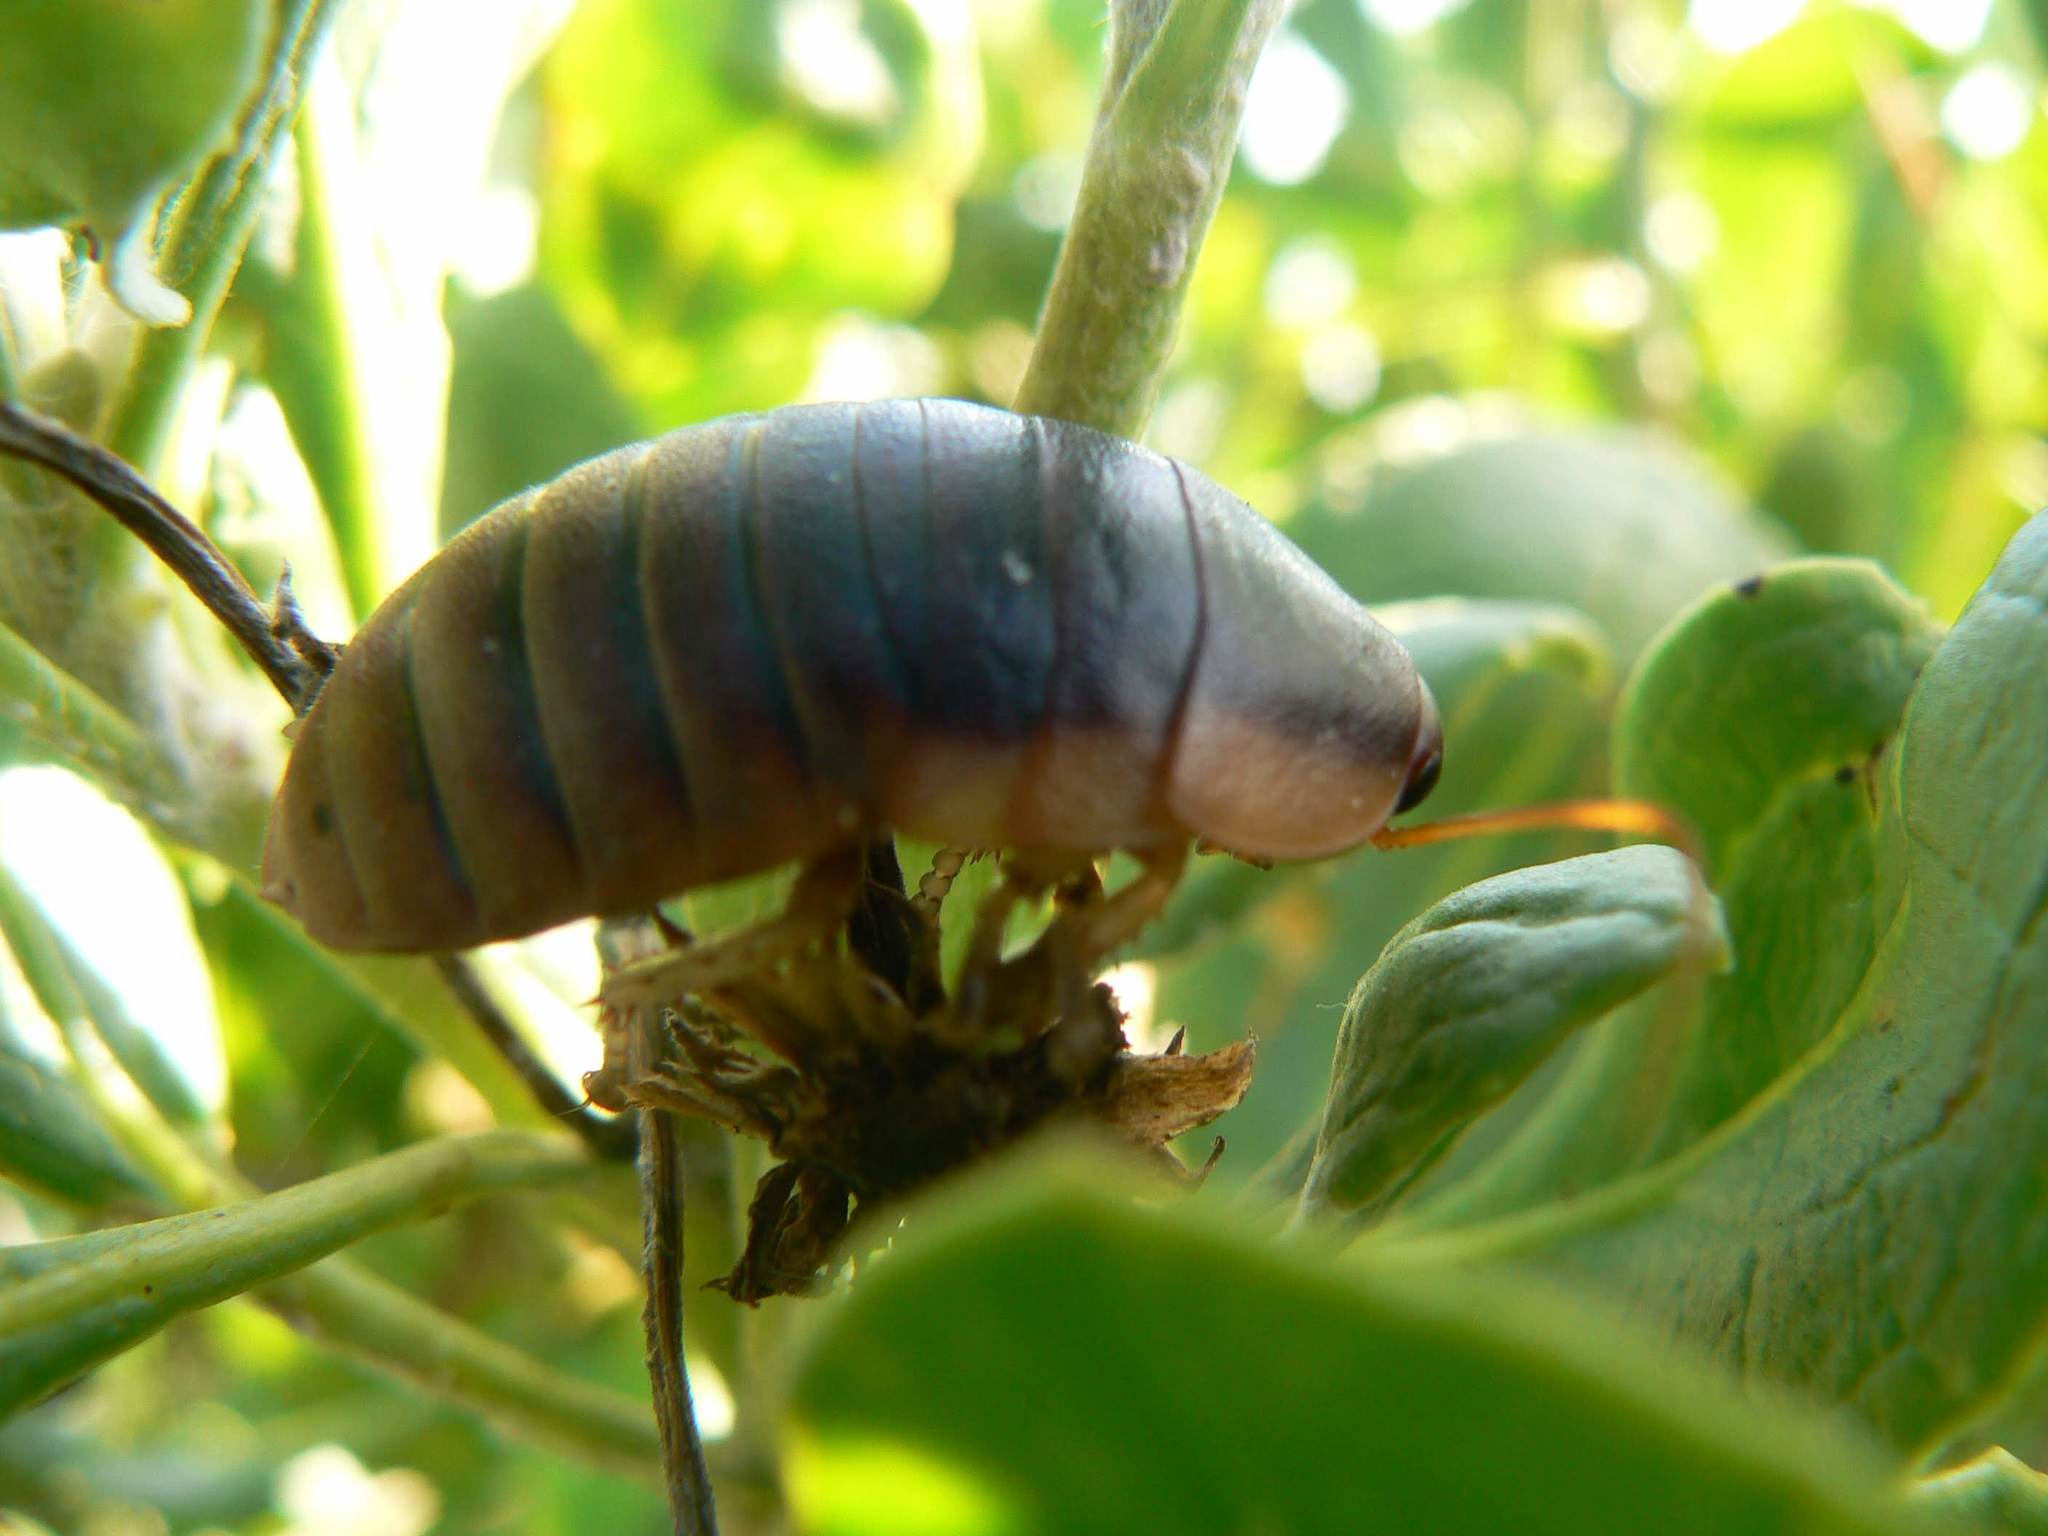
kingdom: Animalia
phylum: Arthropoda
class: Insecta
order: Blattodea
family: Blaberidae
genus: Aptera
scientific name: Aptera fusca
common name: Cape mountain cockroach
